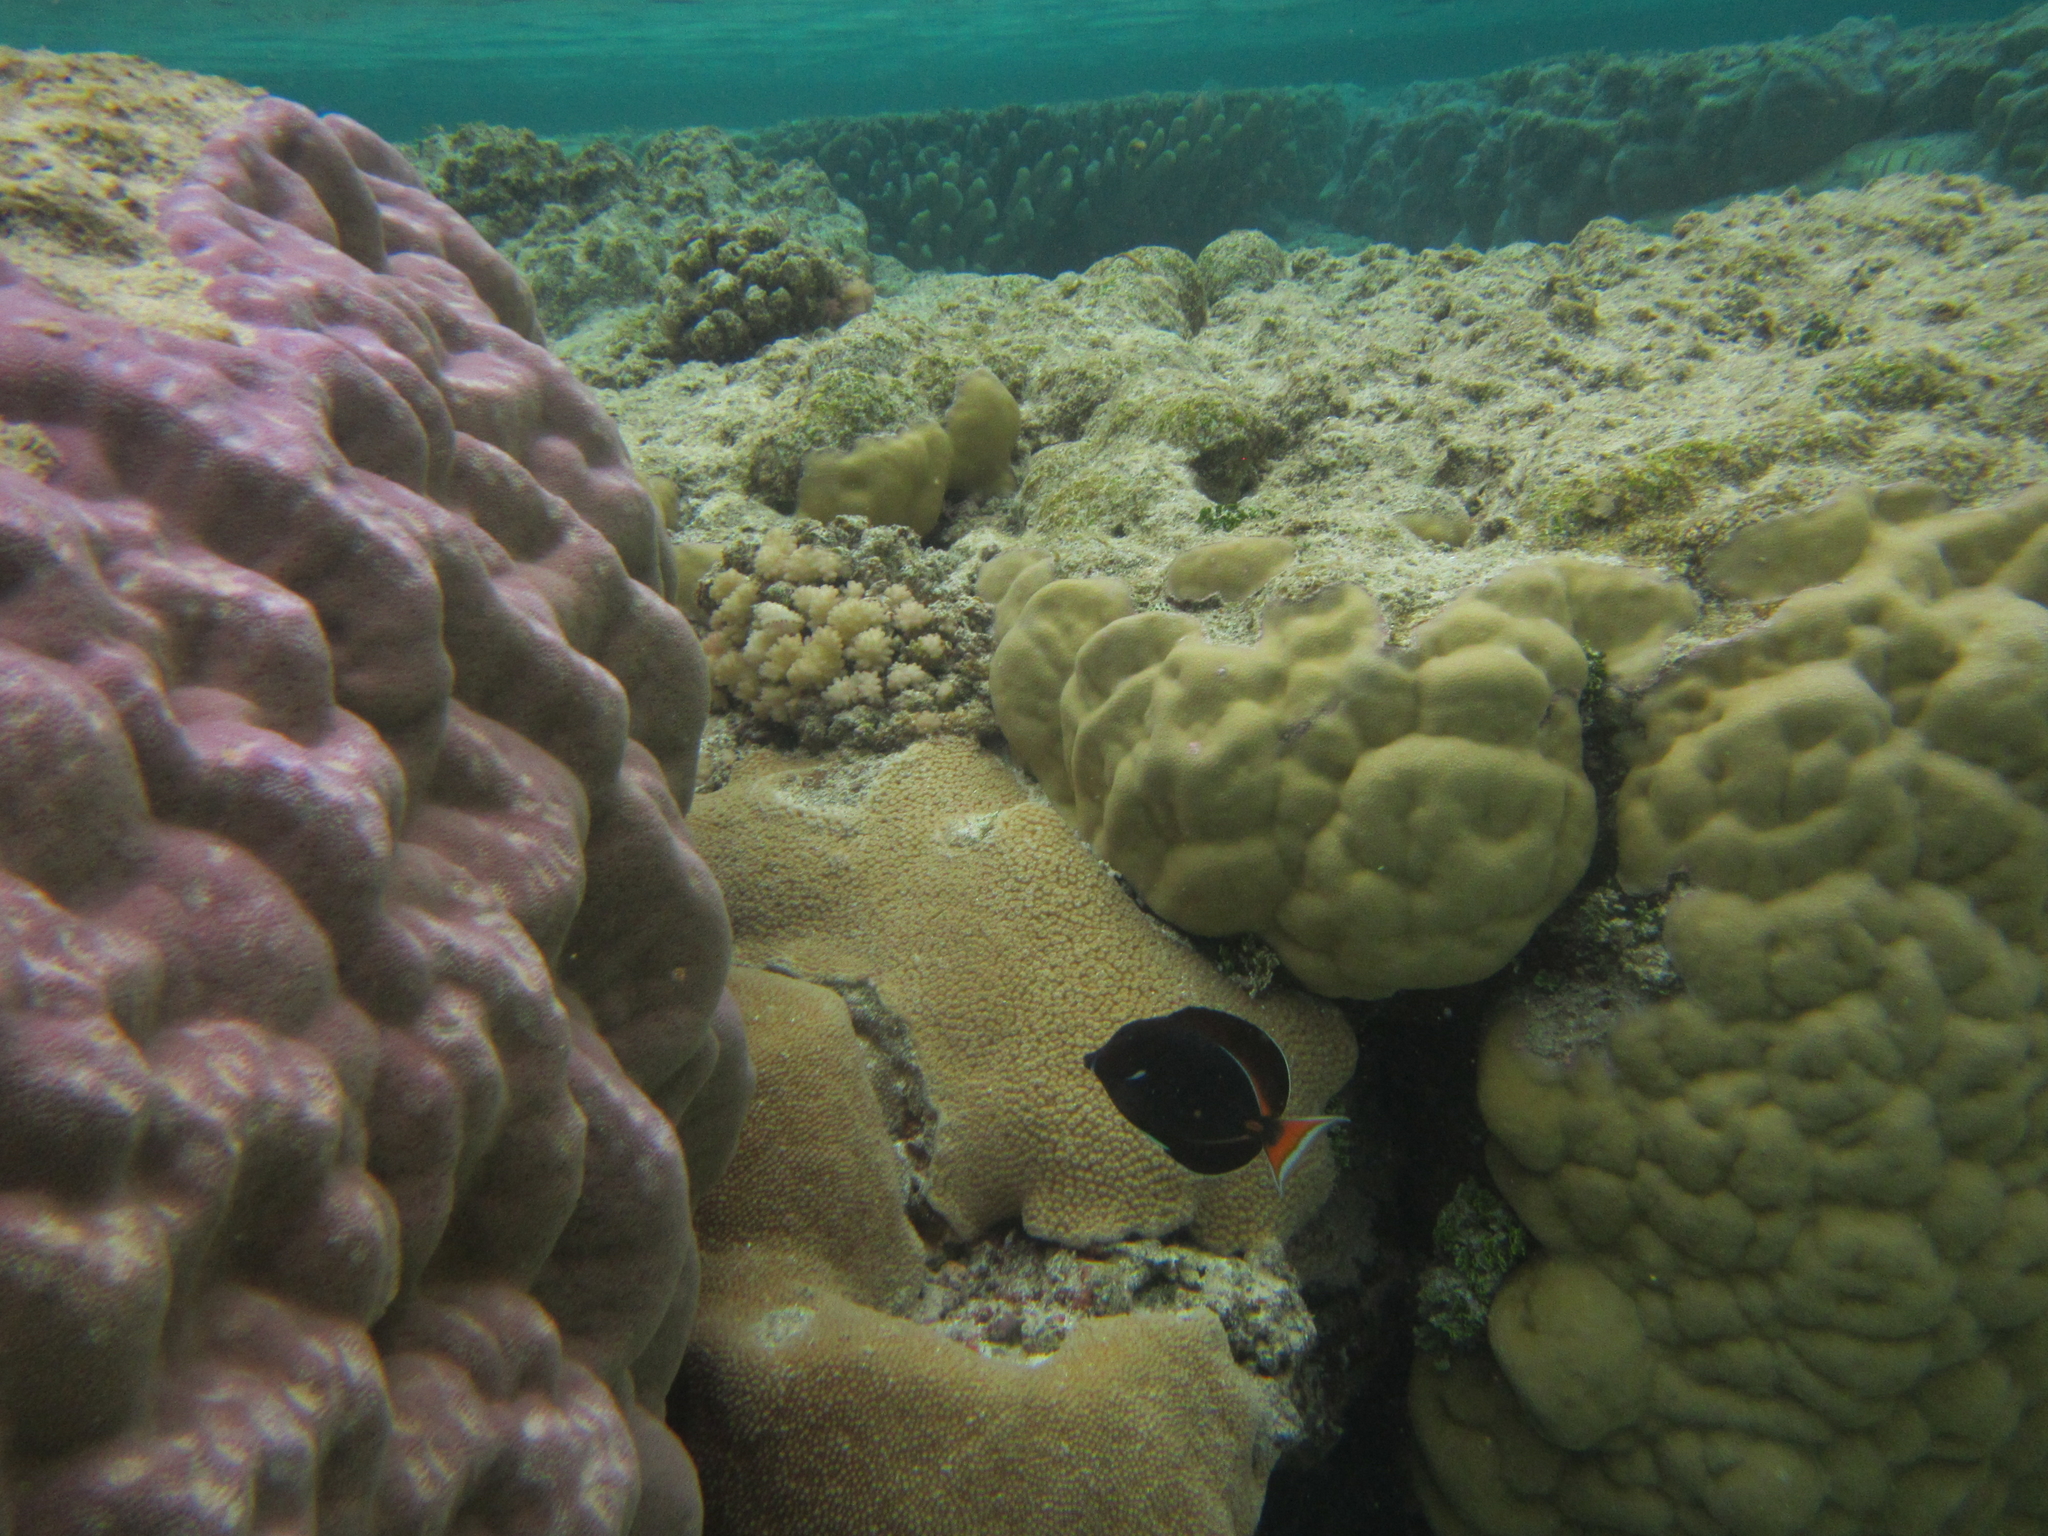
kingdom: Animalia
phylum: Chordata
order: Perciformes
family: Acanthuridae
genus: Acanthurus
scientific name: Acanthurus achilles
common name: Achilles tang
